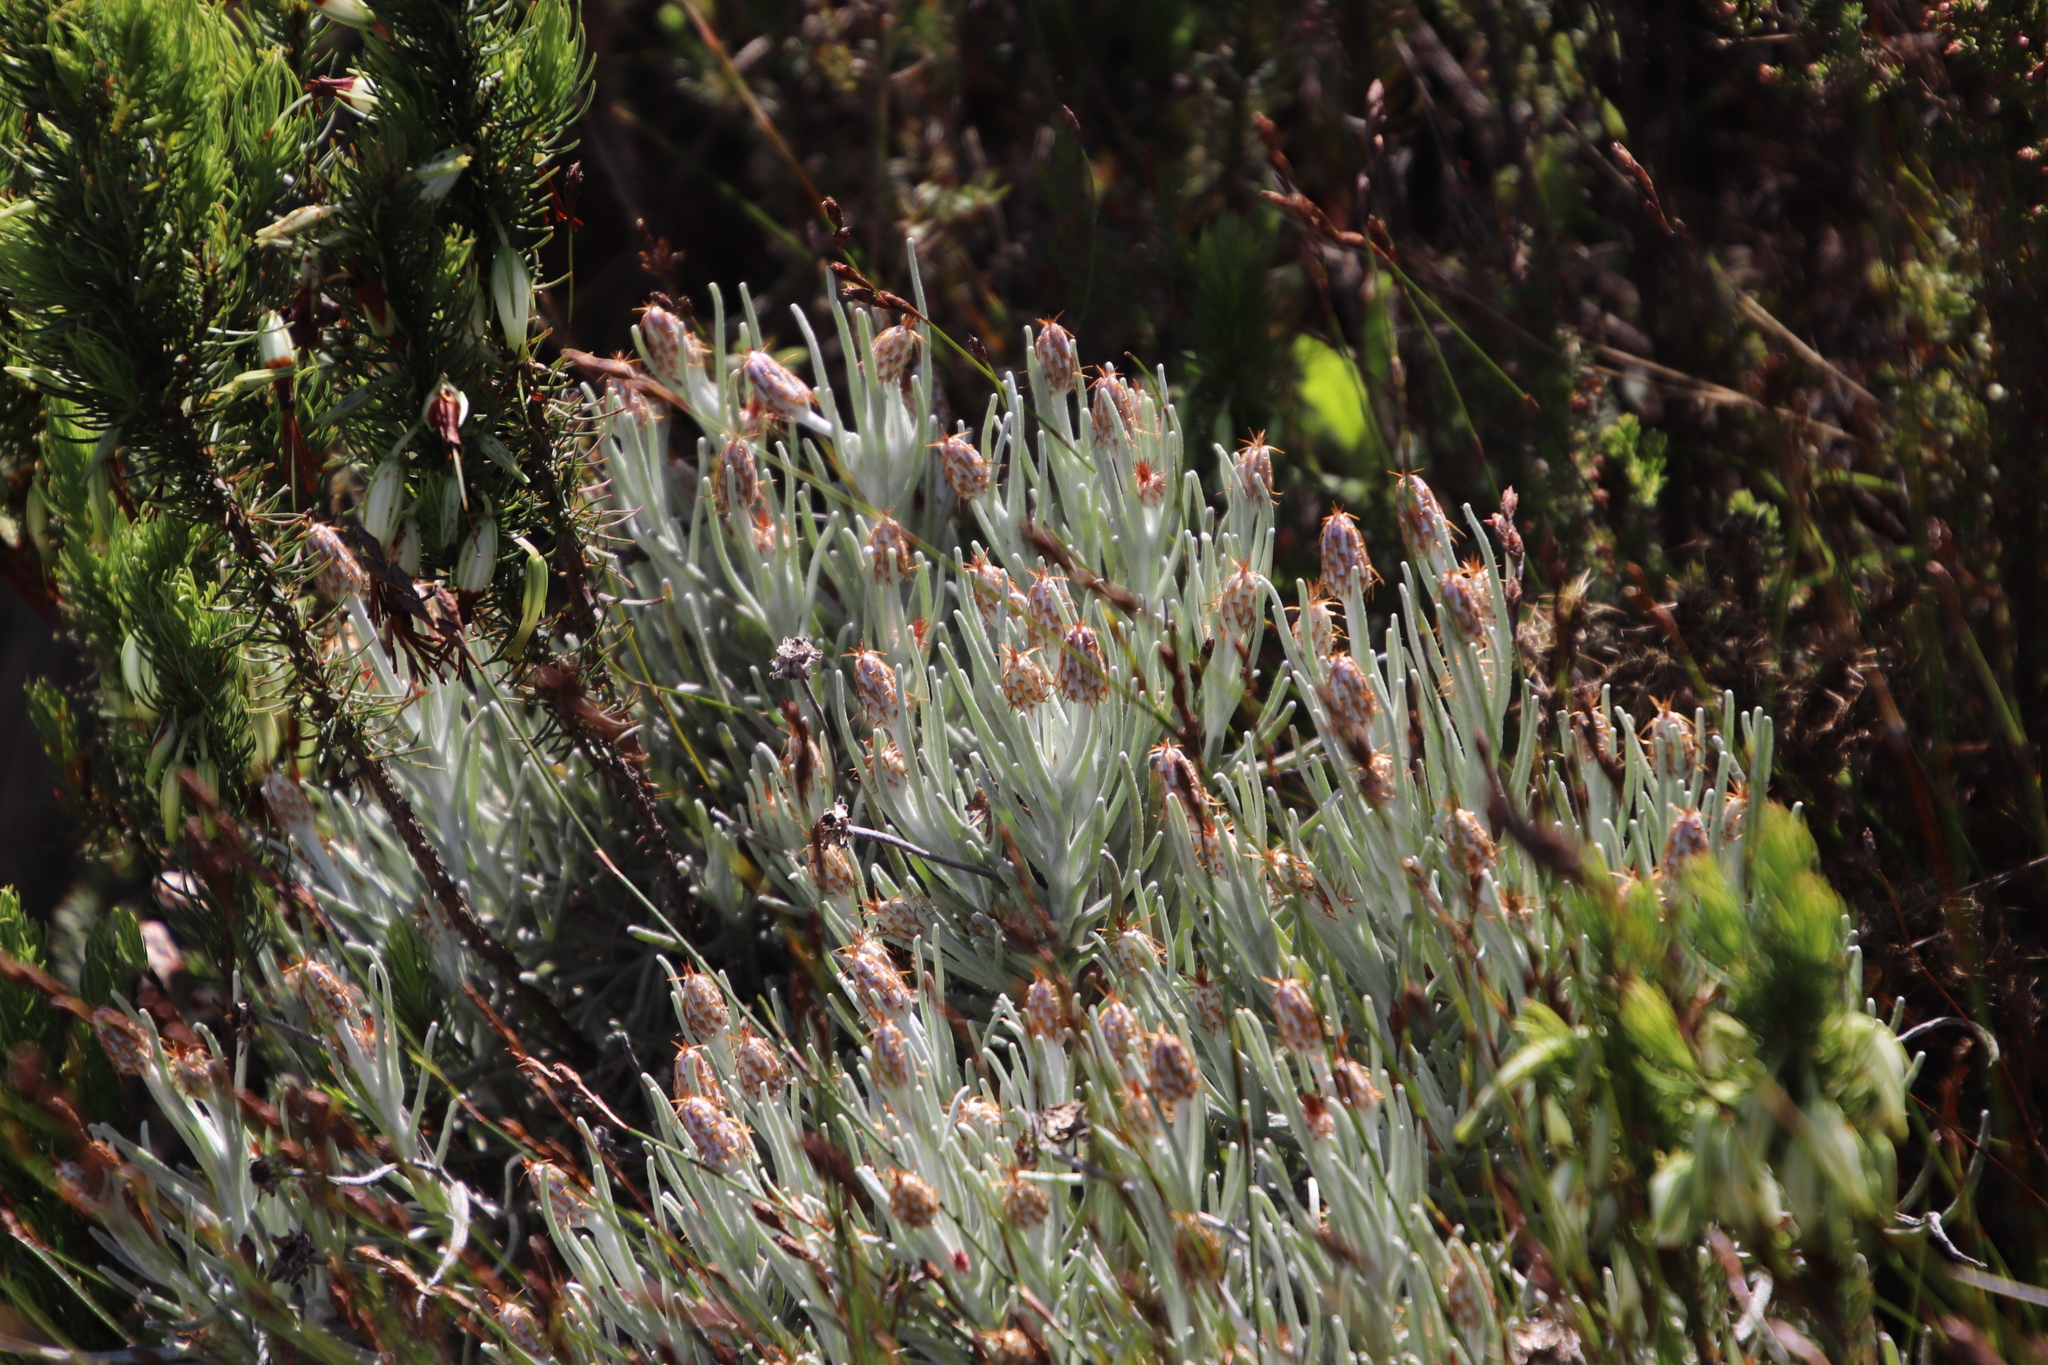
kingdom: Plantae
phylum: Tracheophyta
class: Magnoliopsida
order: Asterales
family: Asteraceae
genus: Syncarpha
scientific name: Syncarpha gnaphaloides
